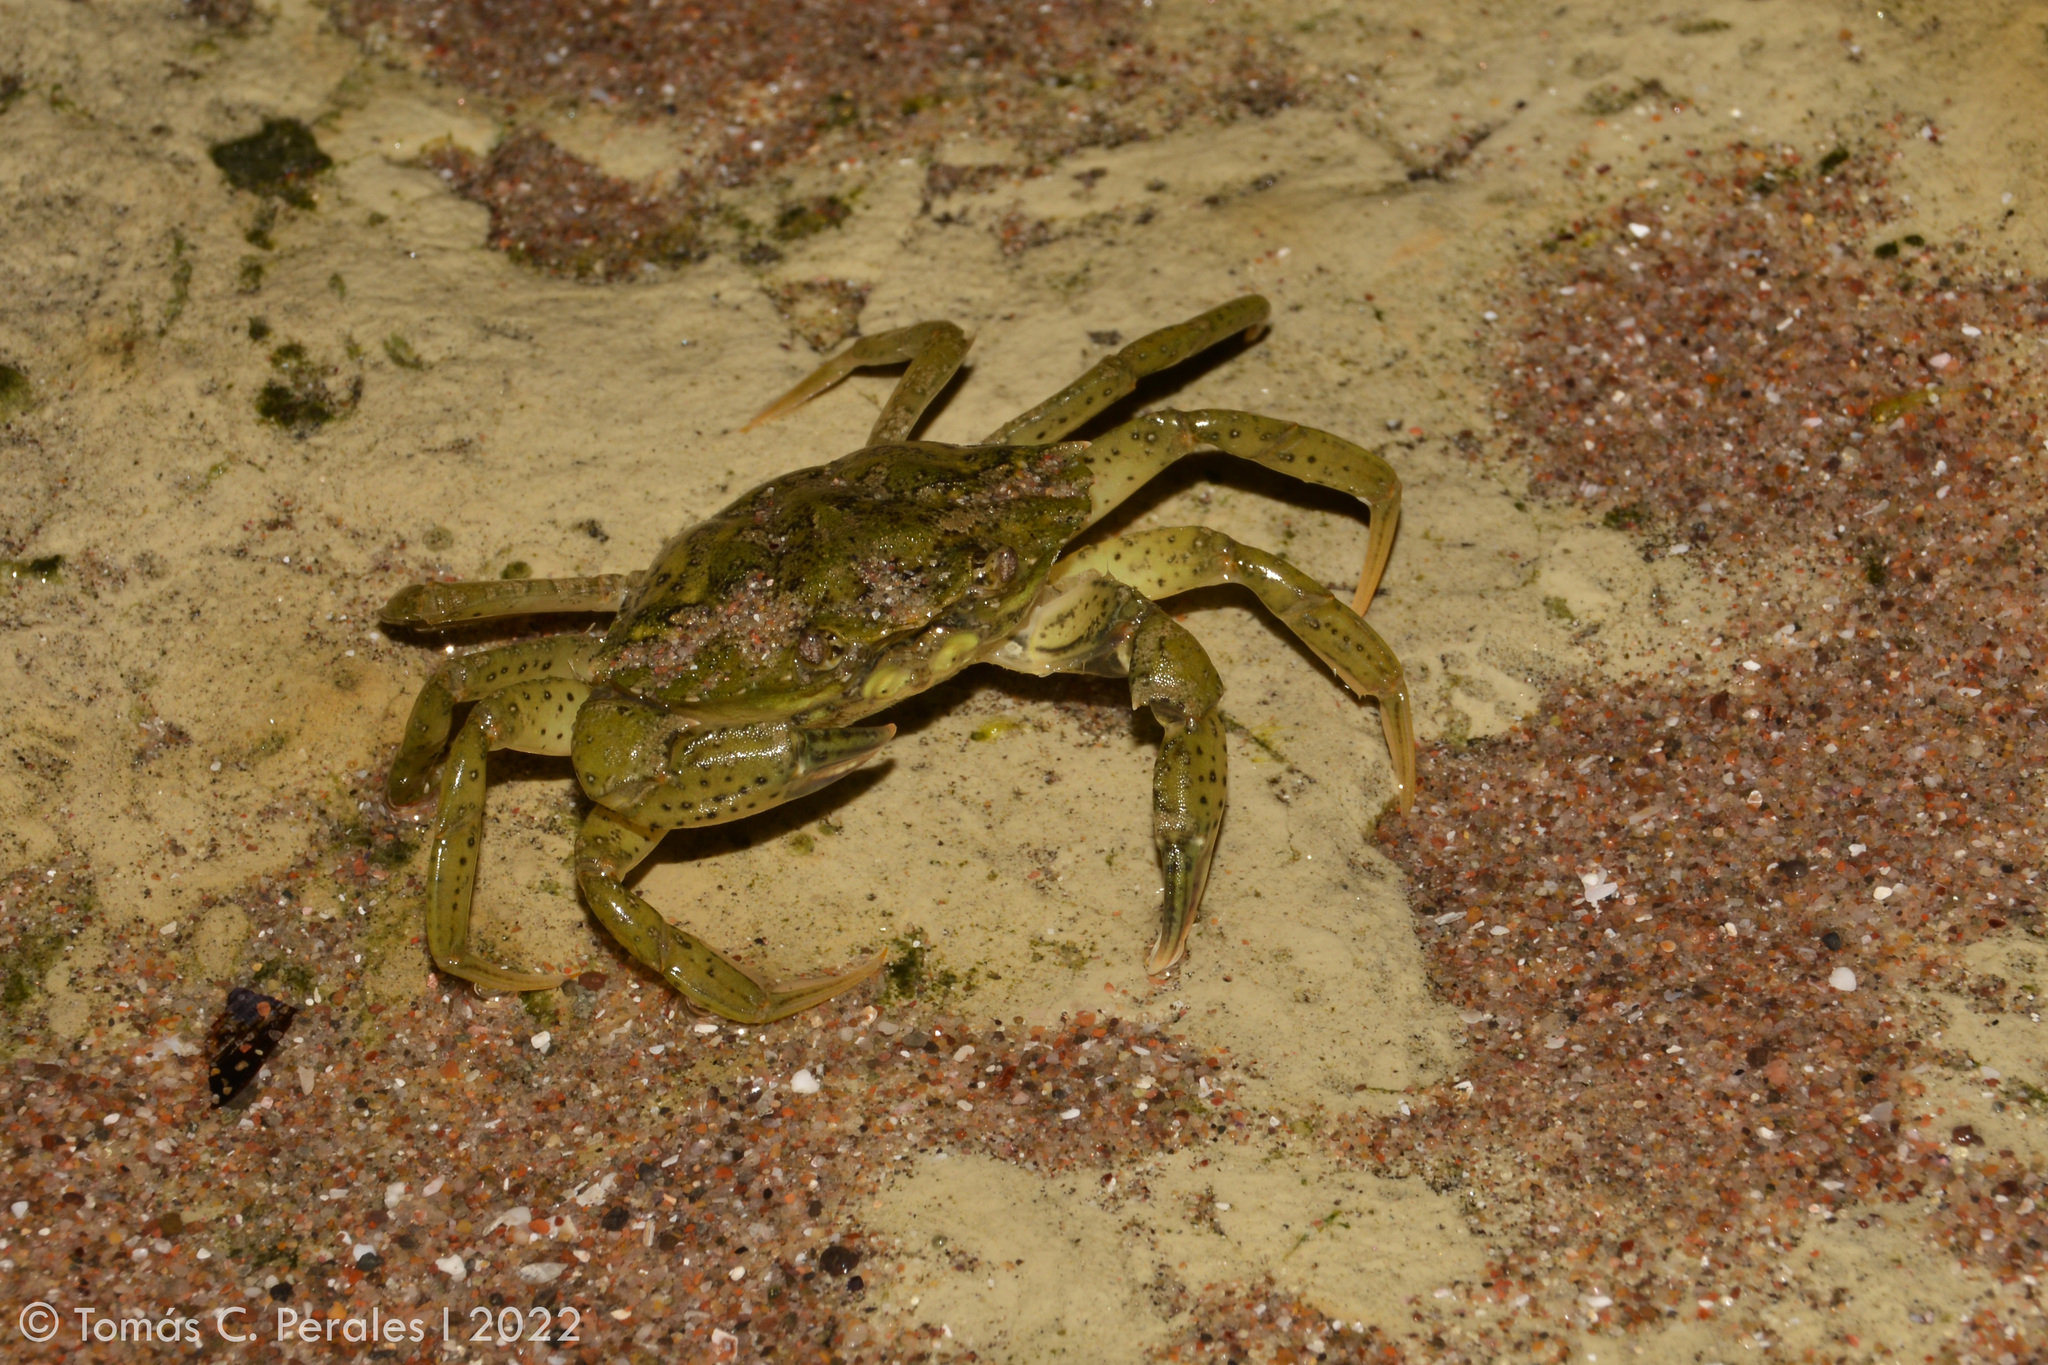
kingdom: Animalia
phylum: Arthropoda
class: Malacostraca
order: Decapoda
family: Carcinidae
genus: Carcinus
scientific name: Carcinus maenas
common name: European green crab
